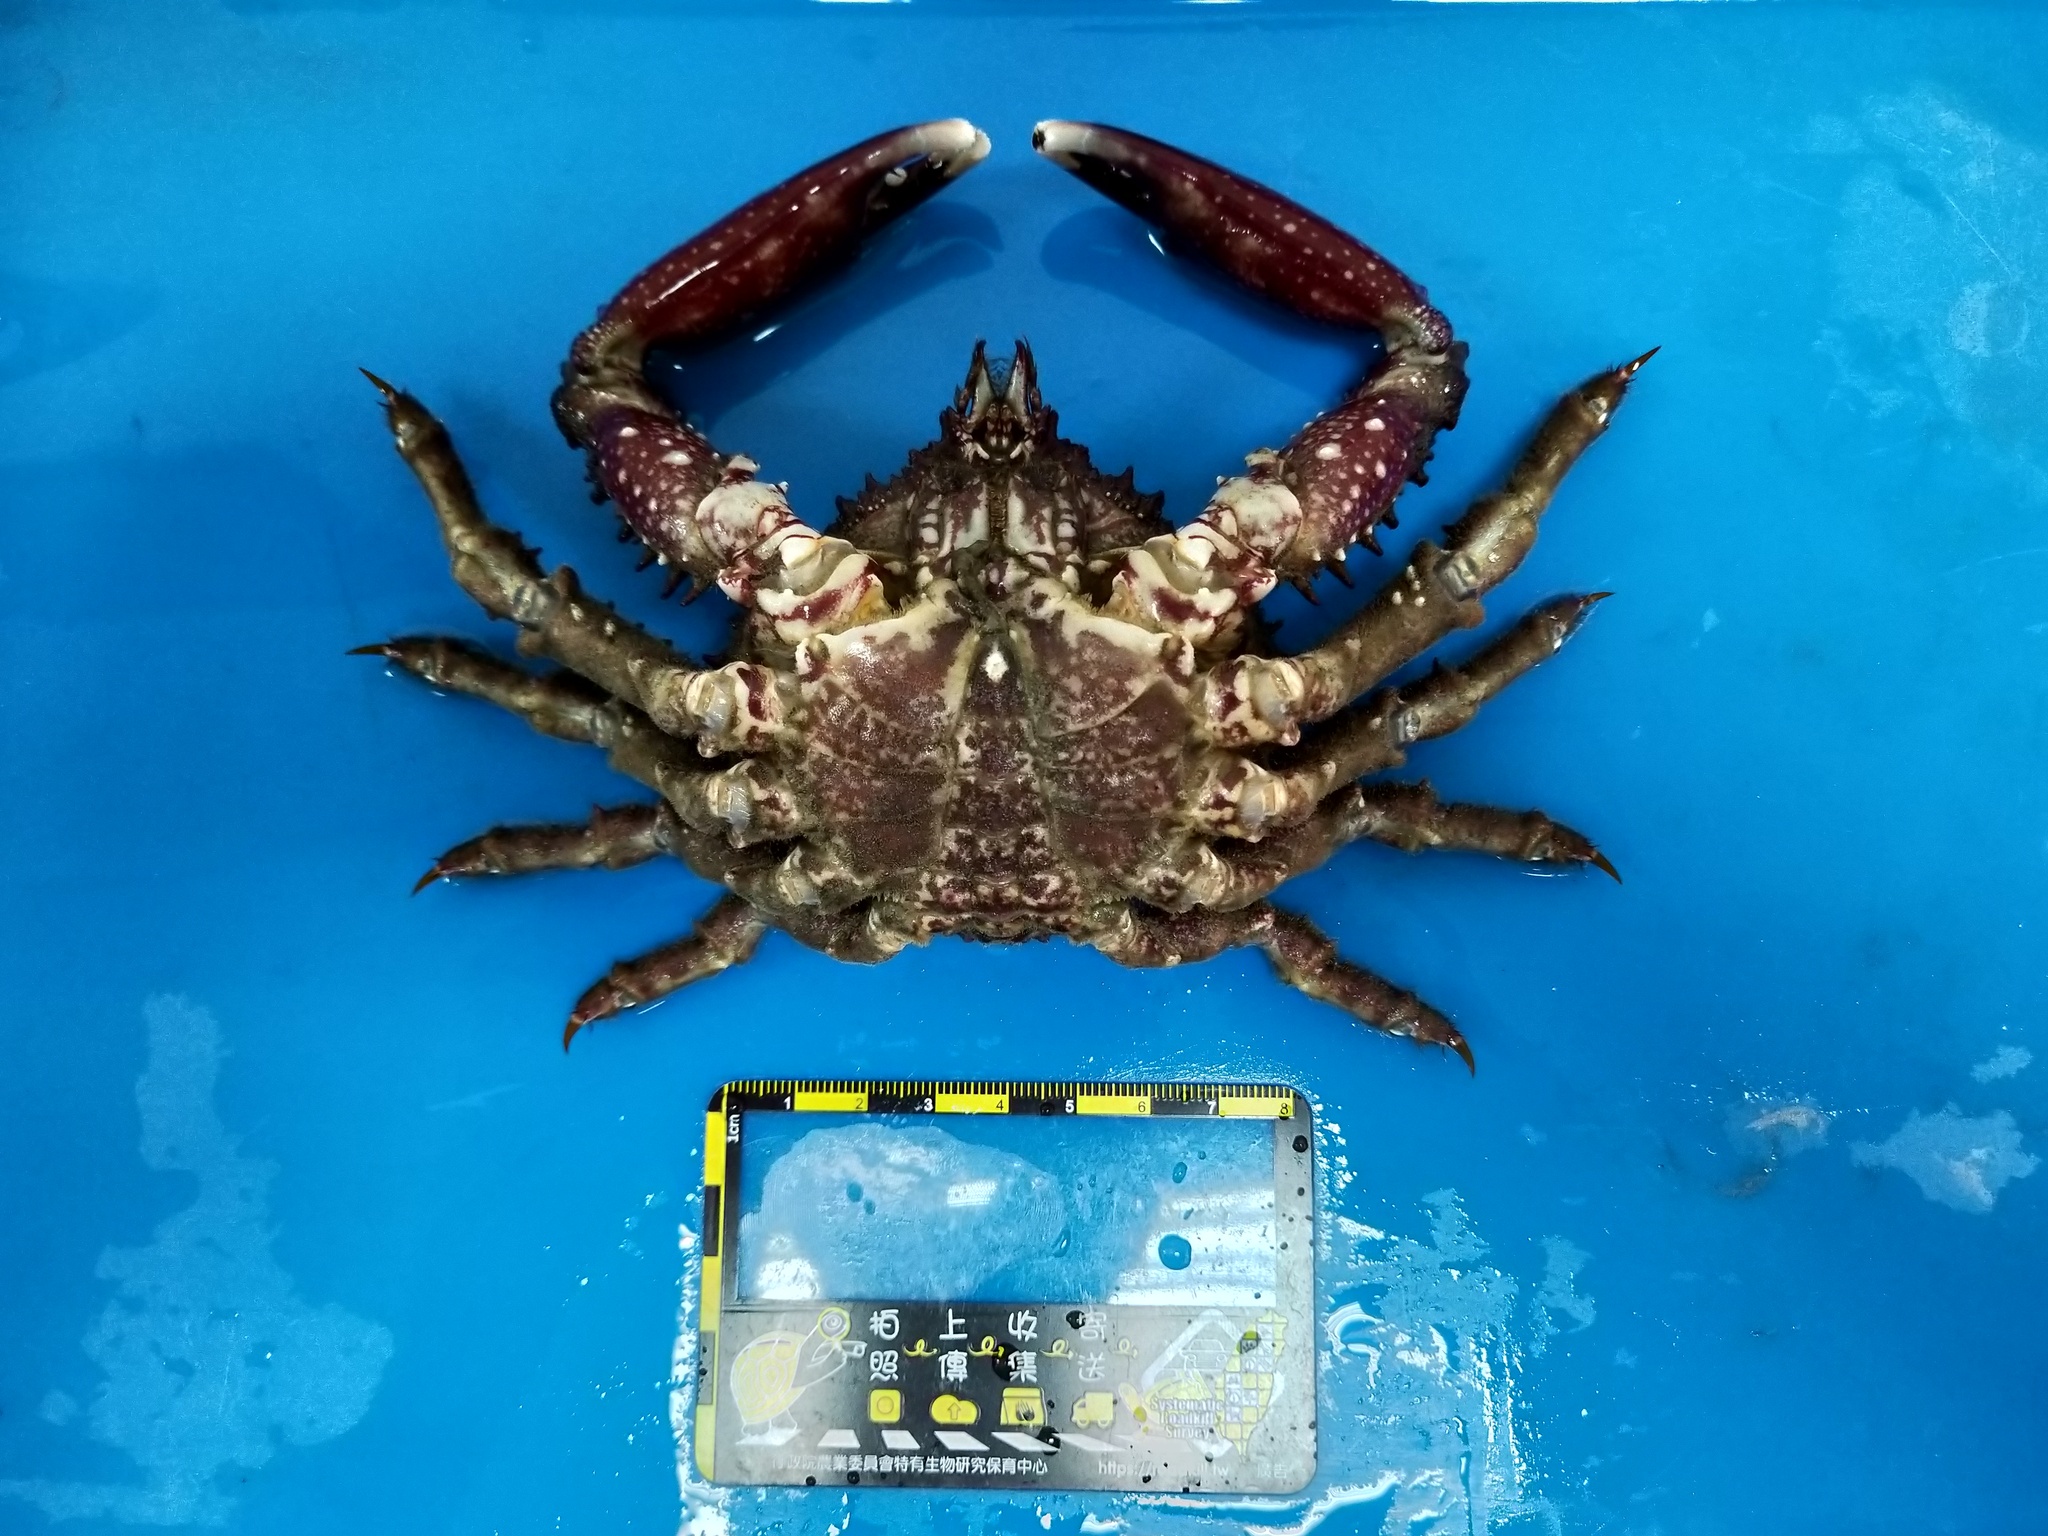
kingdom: Animalia
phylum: Arthropoda
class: Malacostraca
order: Decapoda
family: Mithracidae
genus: Amphithrax
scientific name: Amphithrax armatus
